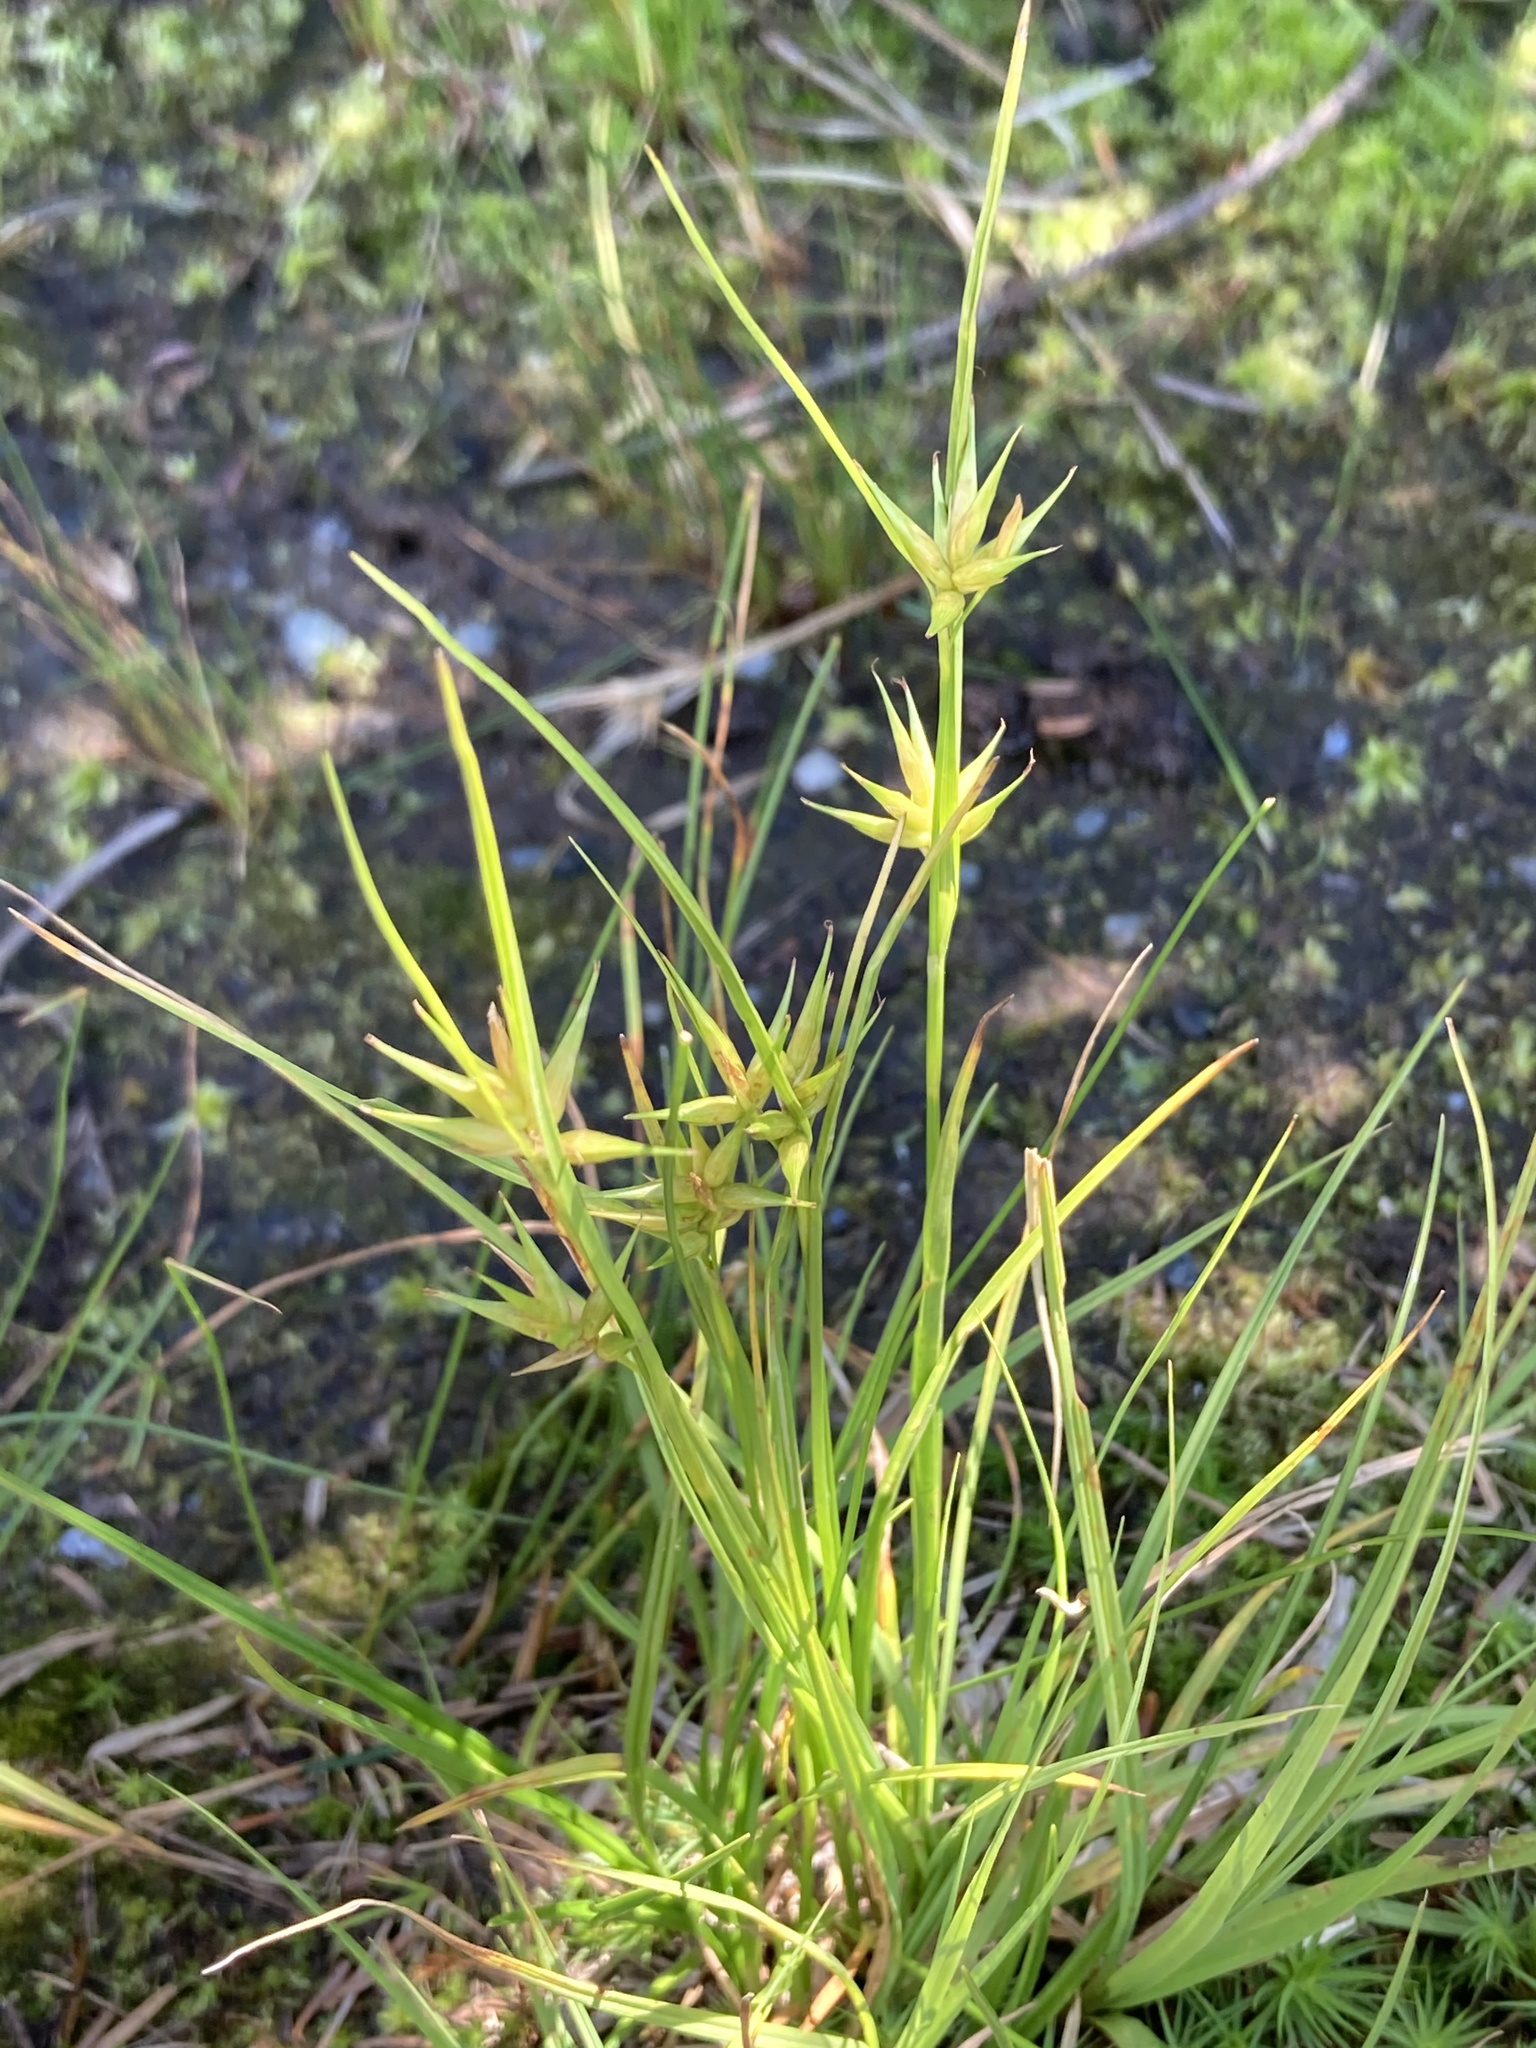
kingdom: Plantae
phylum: Tracheophyta
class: Liliopsida
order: Poales
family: Cyperaceae
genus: Carex
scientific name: Carex michauxiana
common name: Michaux's sedge
